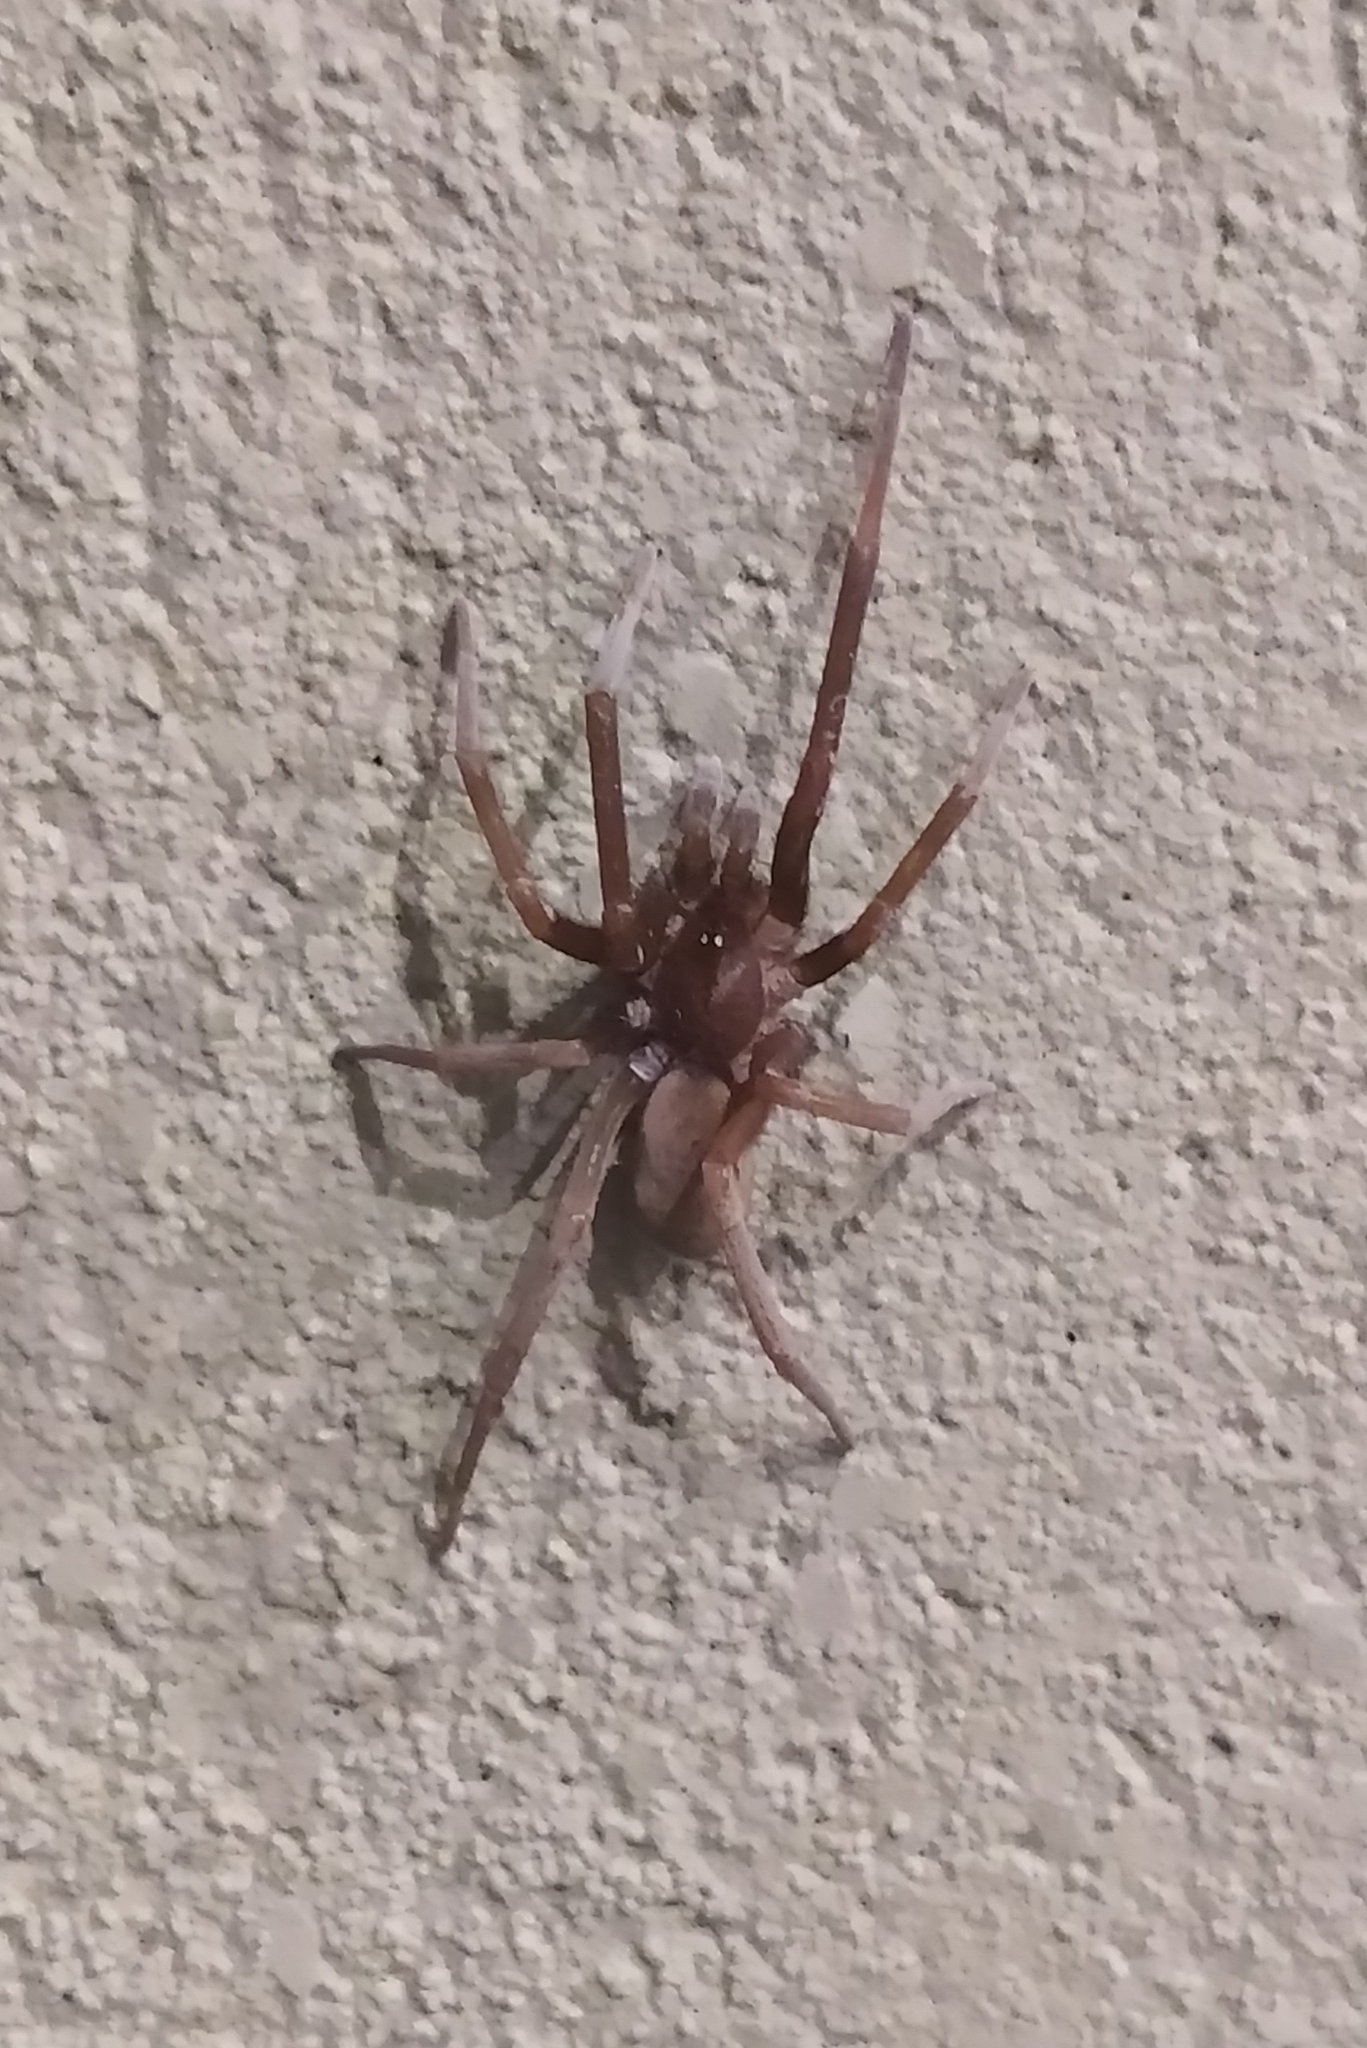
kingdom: Animalia
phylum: Arthropoda
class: Arachnida
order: Araneae
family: Filistatidae
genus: Kukulcania
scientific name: Kukulcania hibernalis
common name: Crevice weaver
